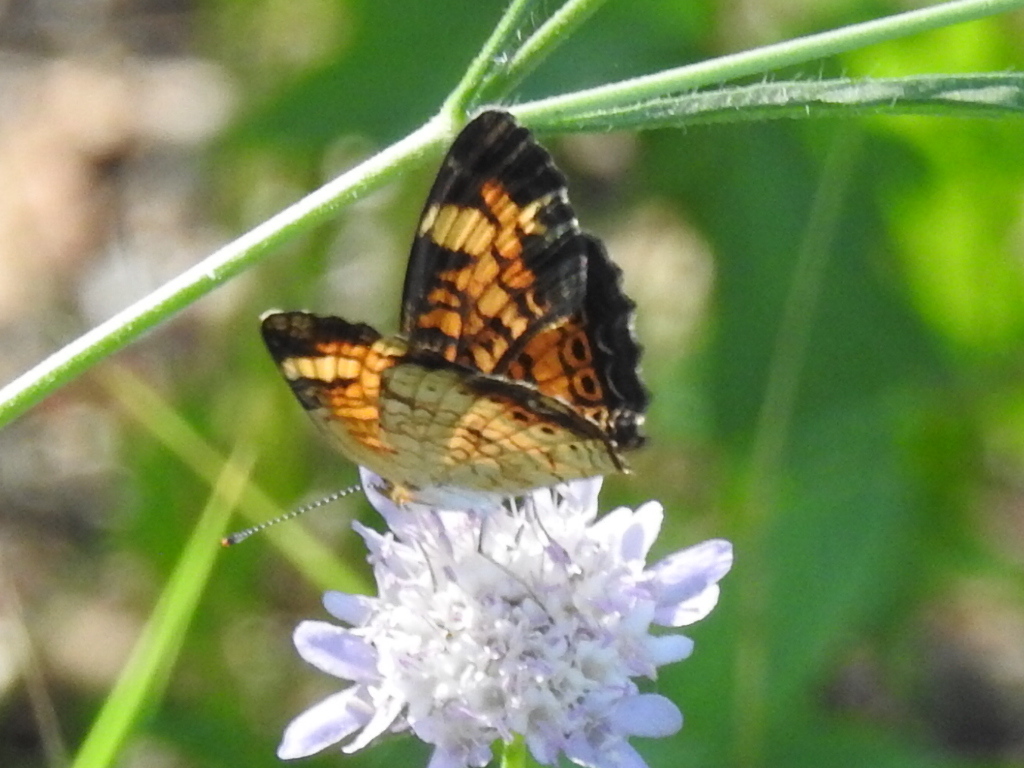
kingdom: Animalia
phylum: Arthropoda
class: Insecta
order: Lepidoptera
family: Nymphalidae
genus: Phyciodes
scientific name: Phyciodes tharos
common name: Pearl crescent
